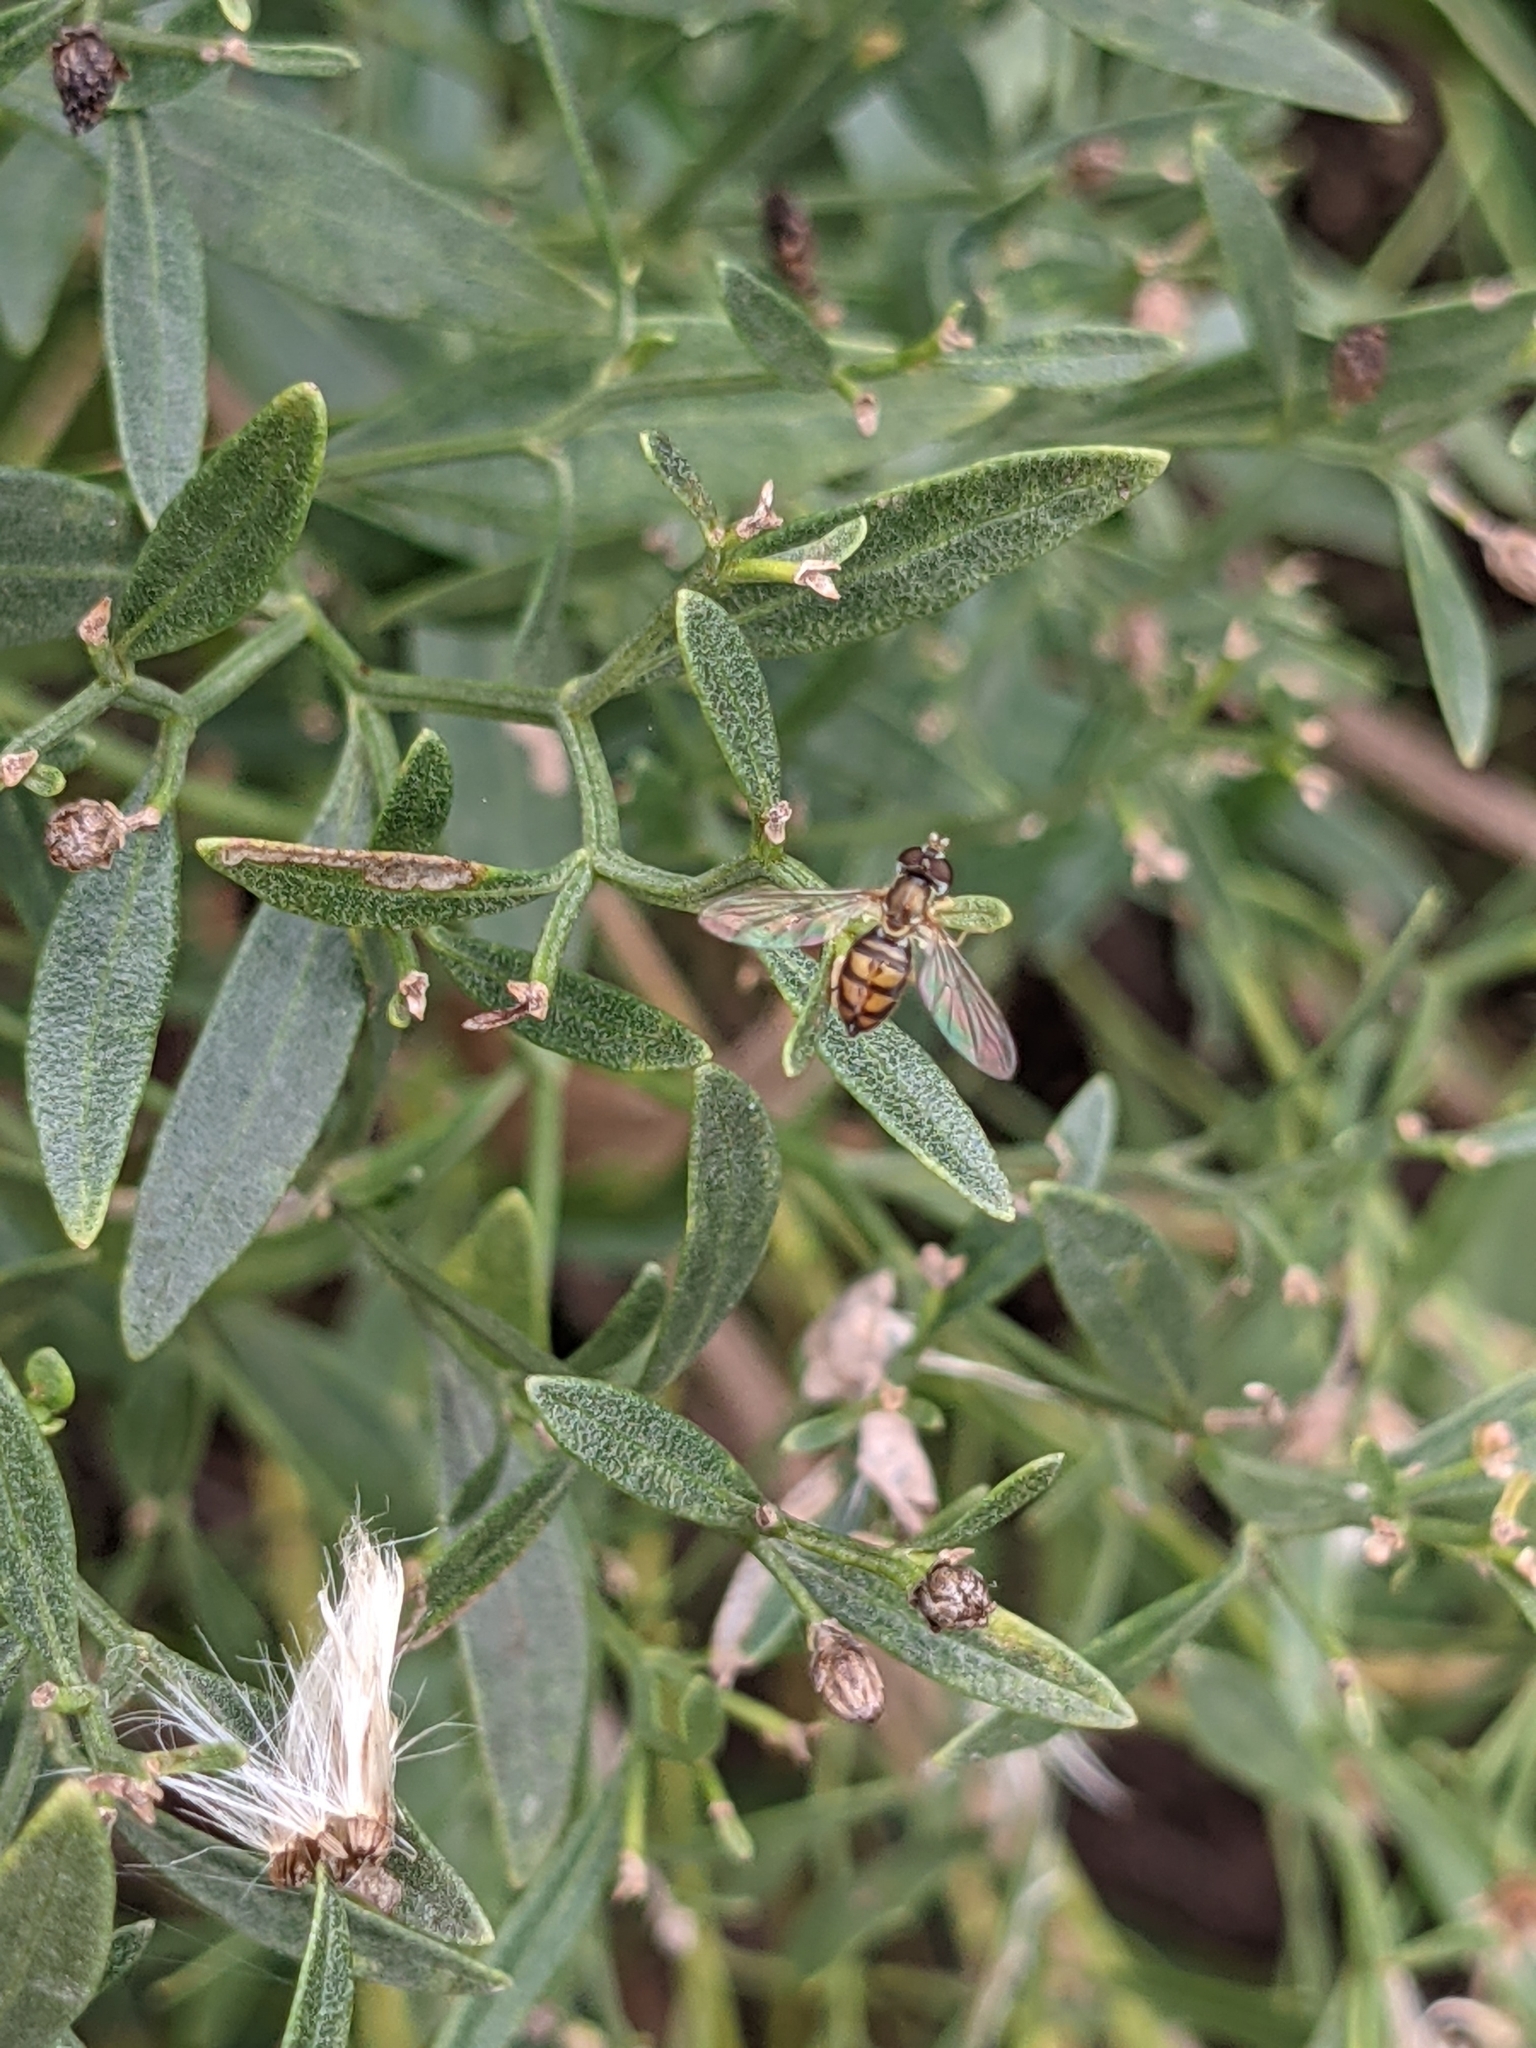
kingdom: Animalia
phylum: Arthropoda
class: Insecta
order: Diptera
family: Syrphidae
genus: Toxomerus
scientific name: Toxomerus marginatus
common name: Syrphid fly
